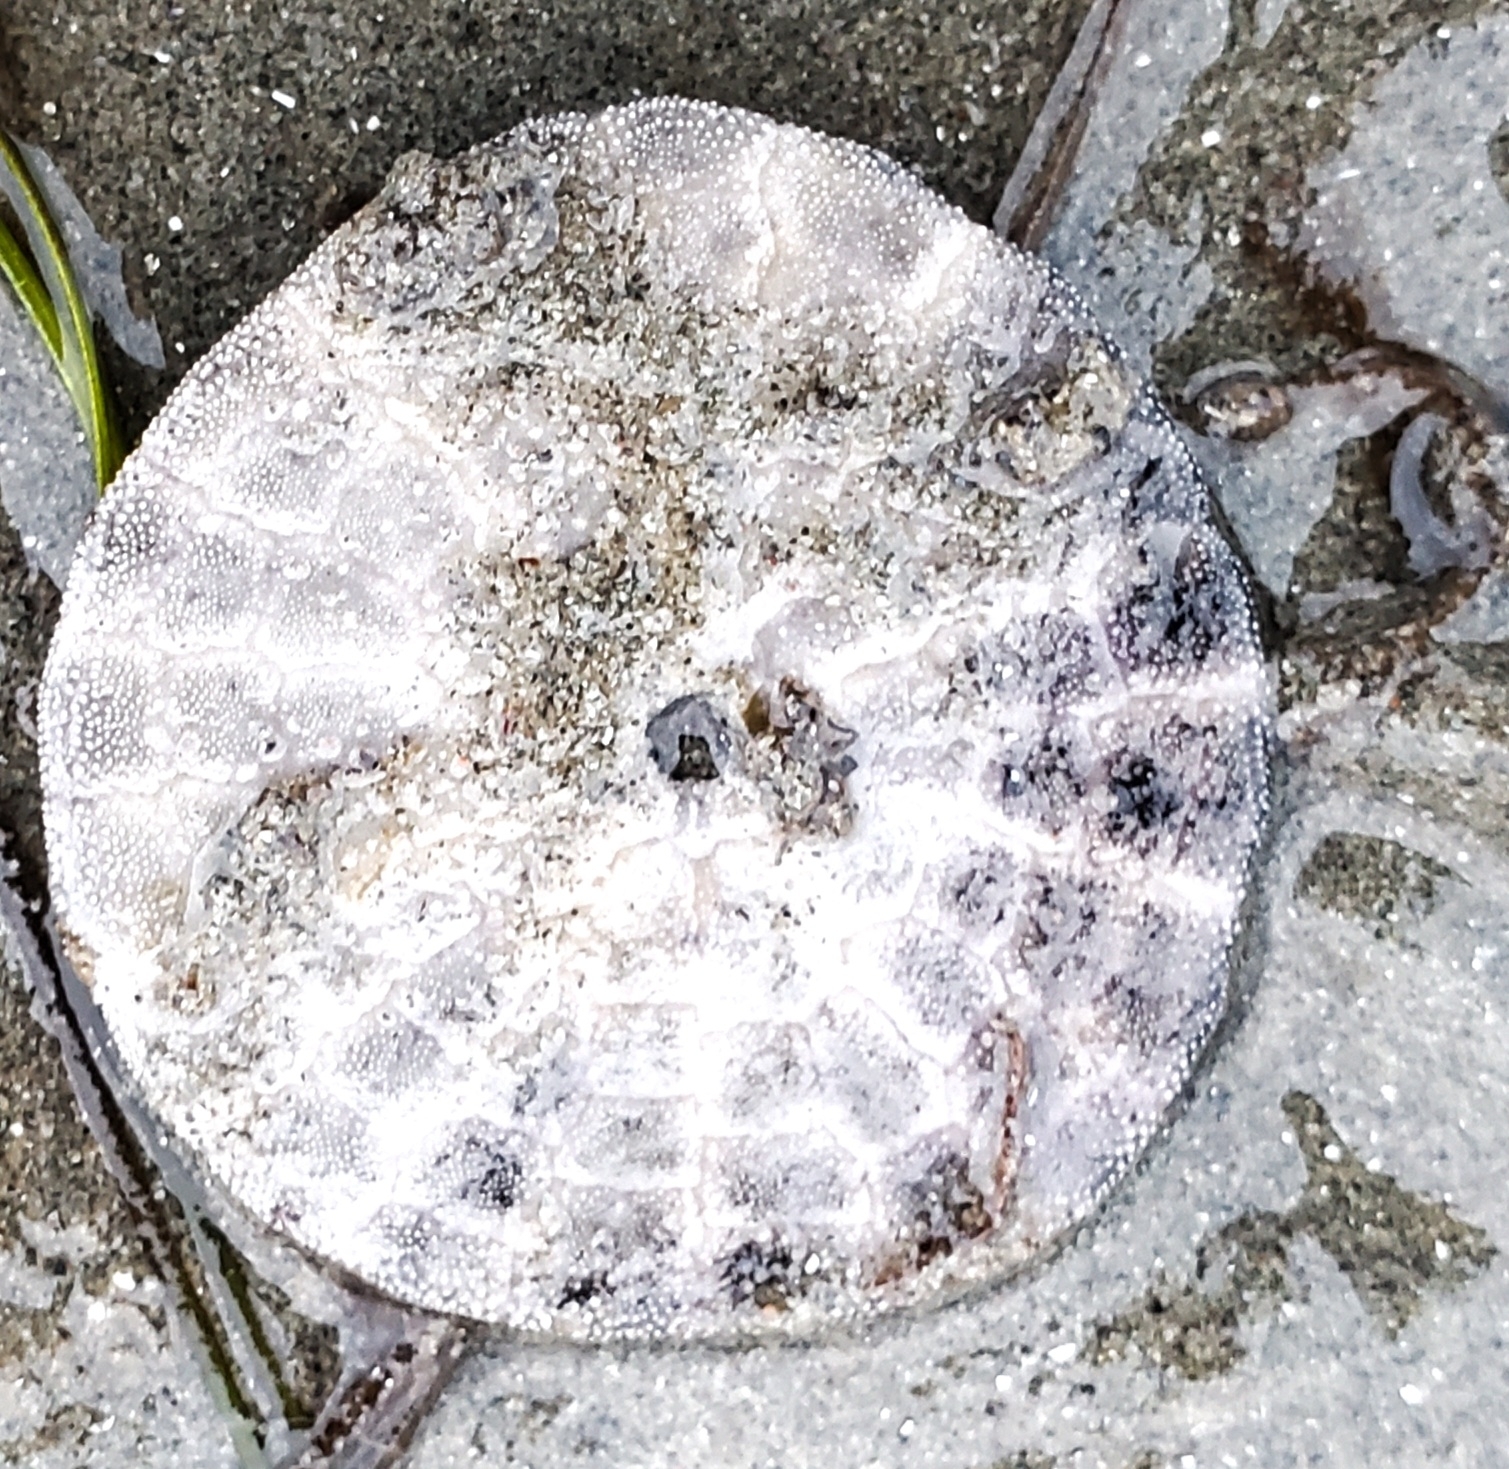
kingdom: Animalia
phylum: Echinodermata
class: Echinoidea
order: Echinolampadacea
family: Dendrasteridae
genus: Dendraster
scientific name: Dendraster excentricus
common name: Eccentric sand dollar sea urchin
